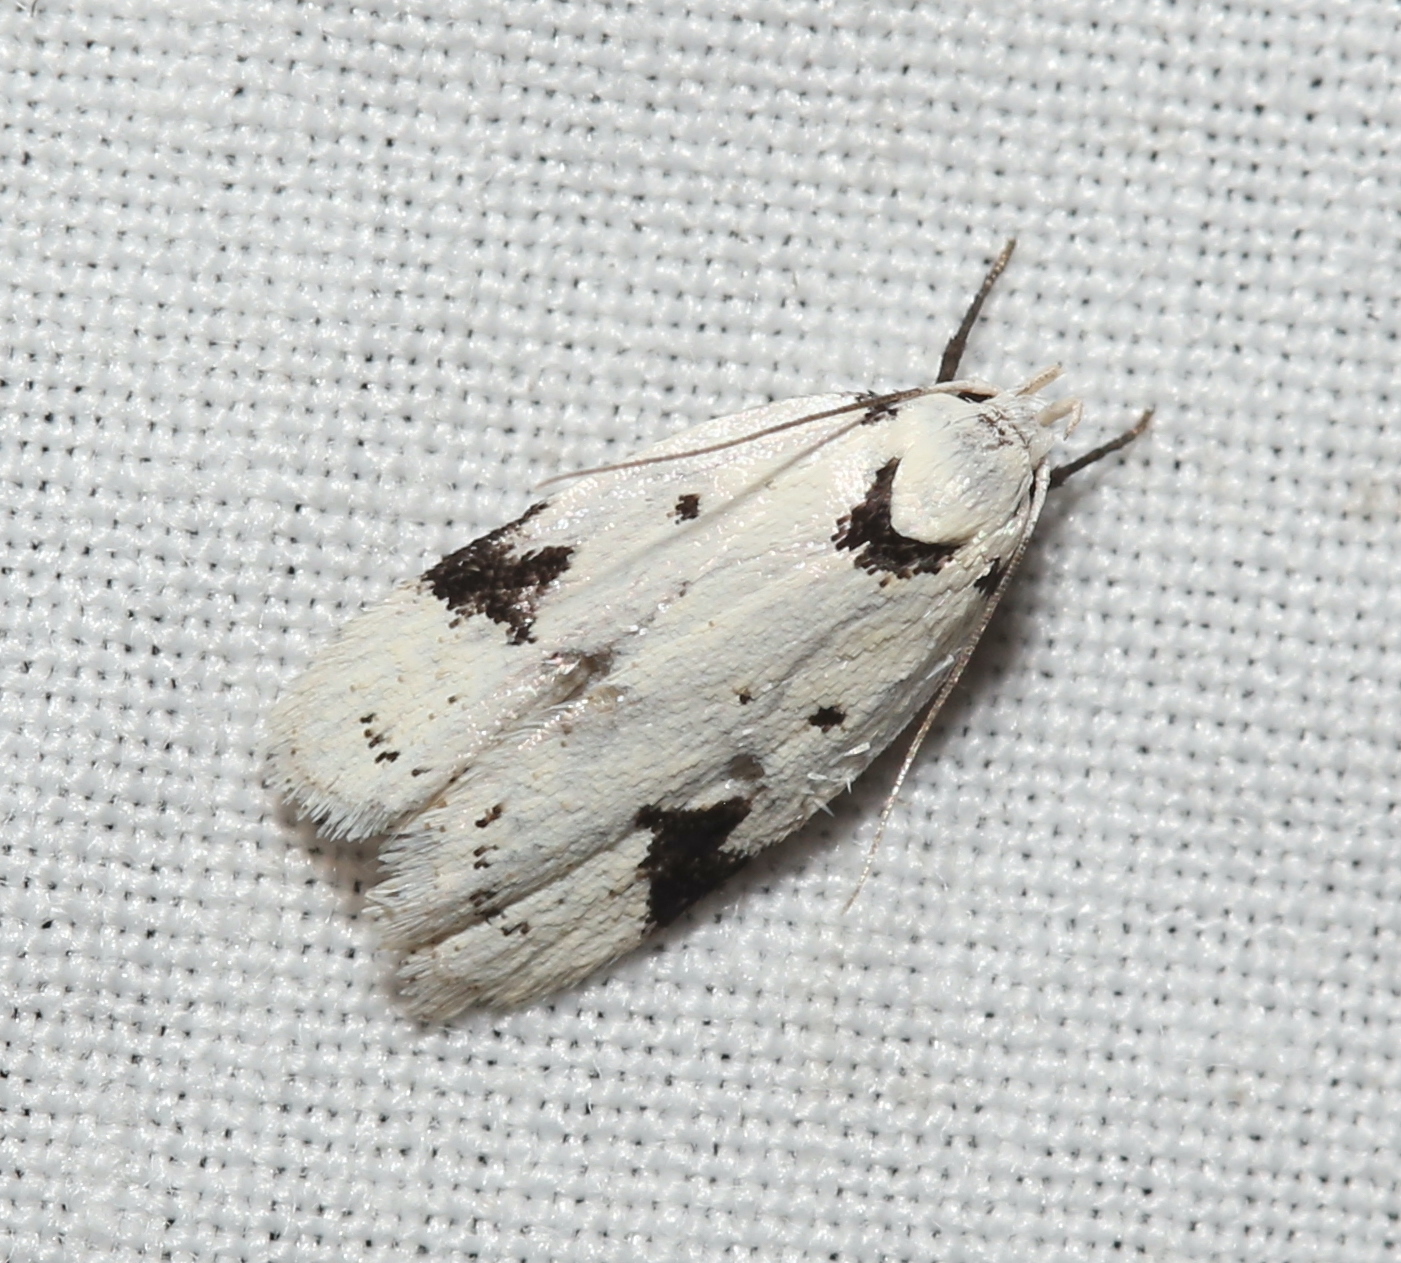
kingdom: Animalia
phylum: Arthropoda
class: Insecta
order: Lepidoptera
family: Oecophoridae
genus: Inga
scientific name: Inga sparsiciliella
